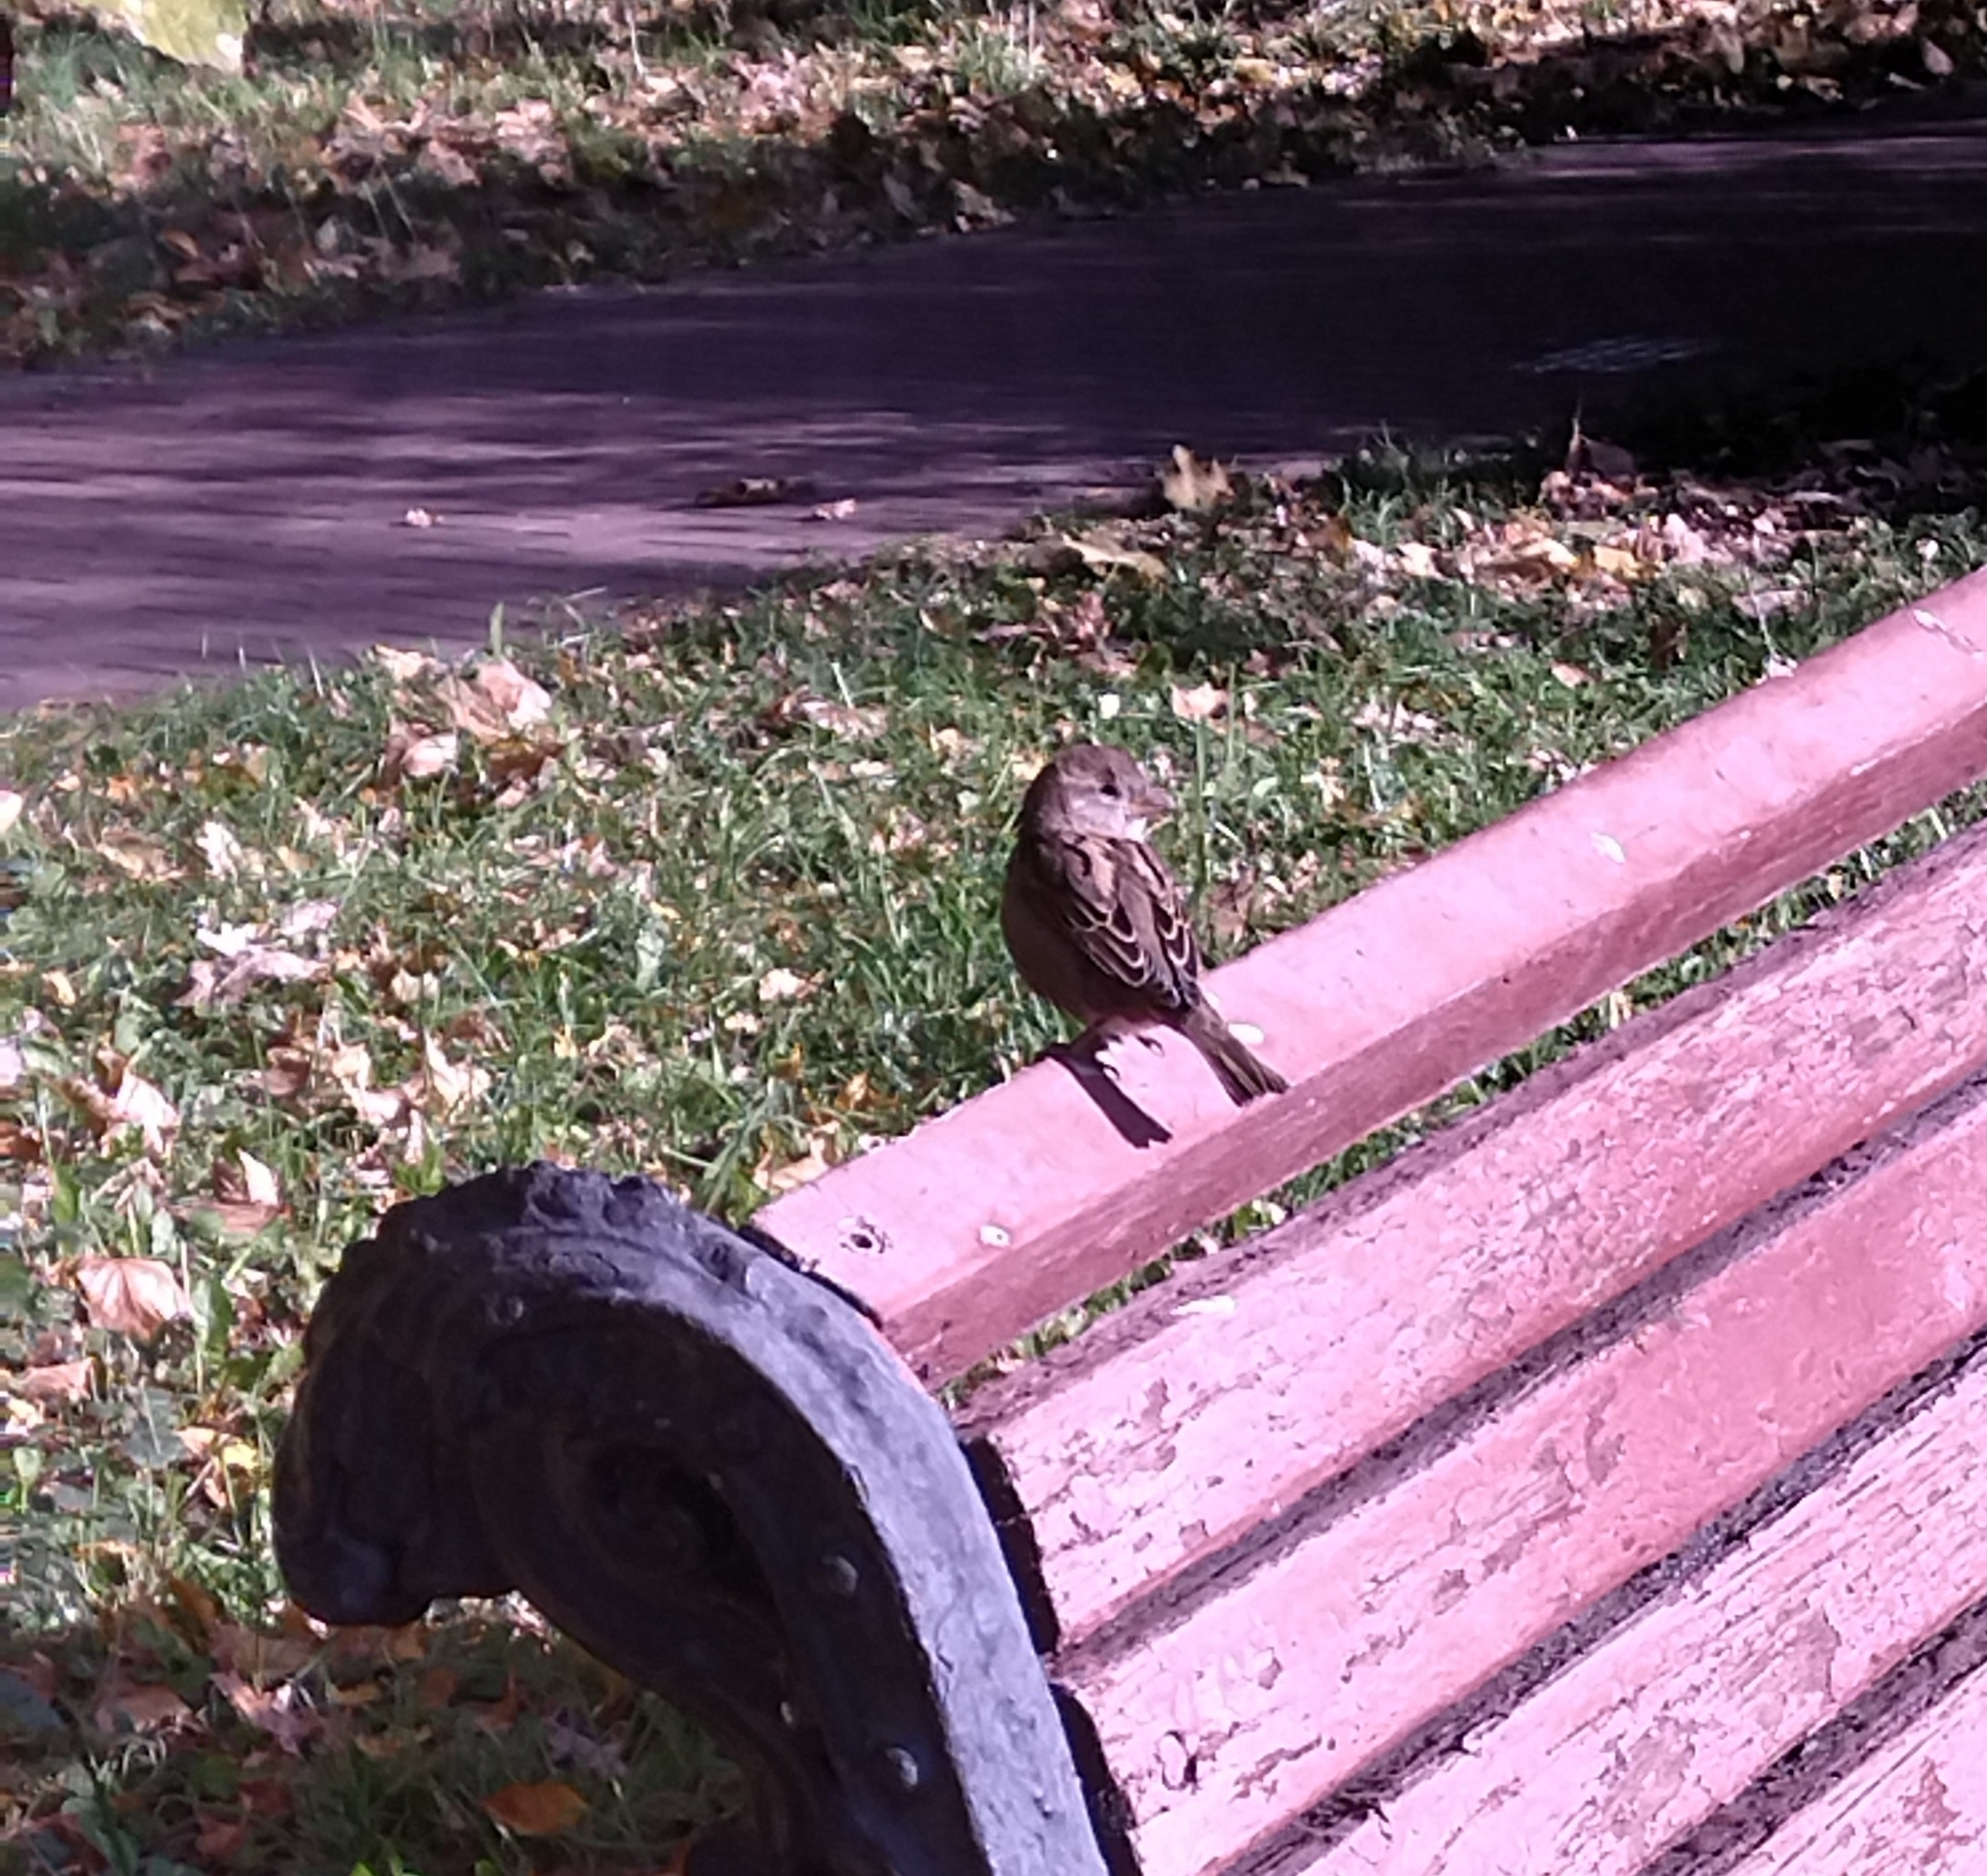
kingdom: Animalia
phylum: Chordata
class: Aves
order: Passeriformes
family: Passeridae
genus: Passer
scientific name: Passer domesticus
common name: House sparrow
